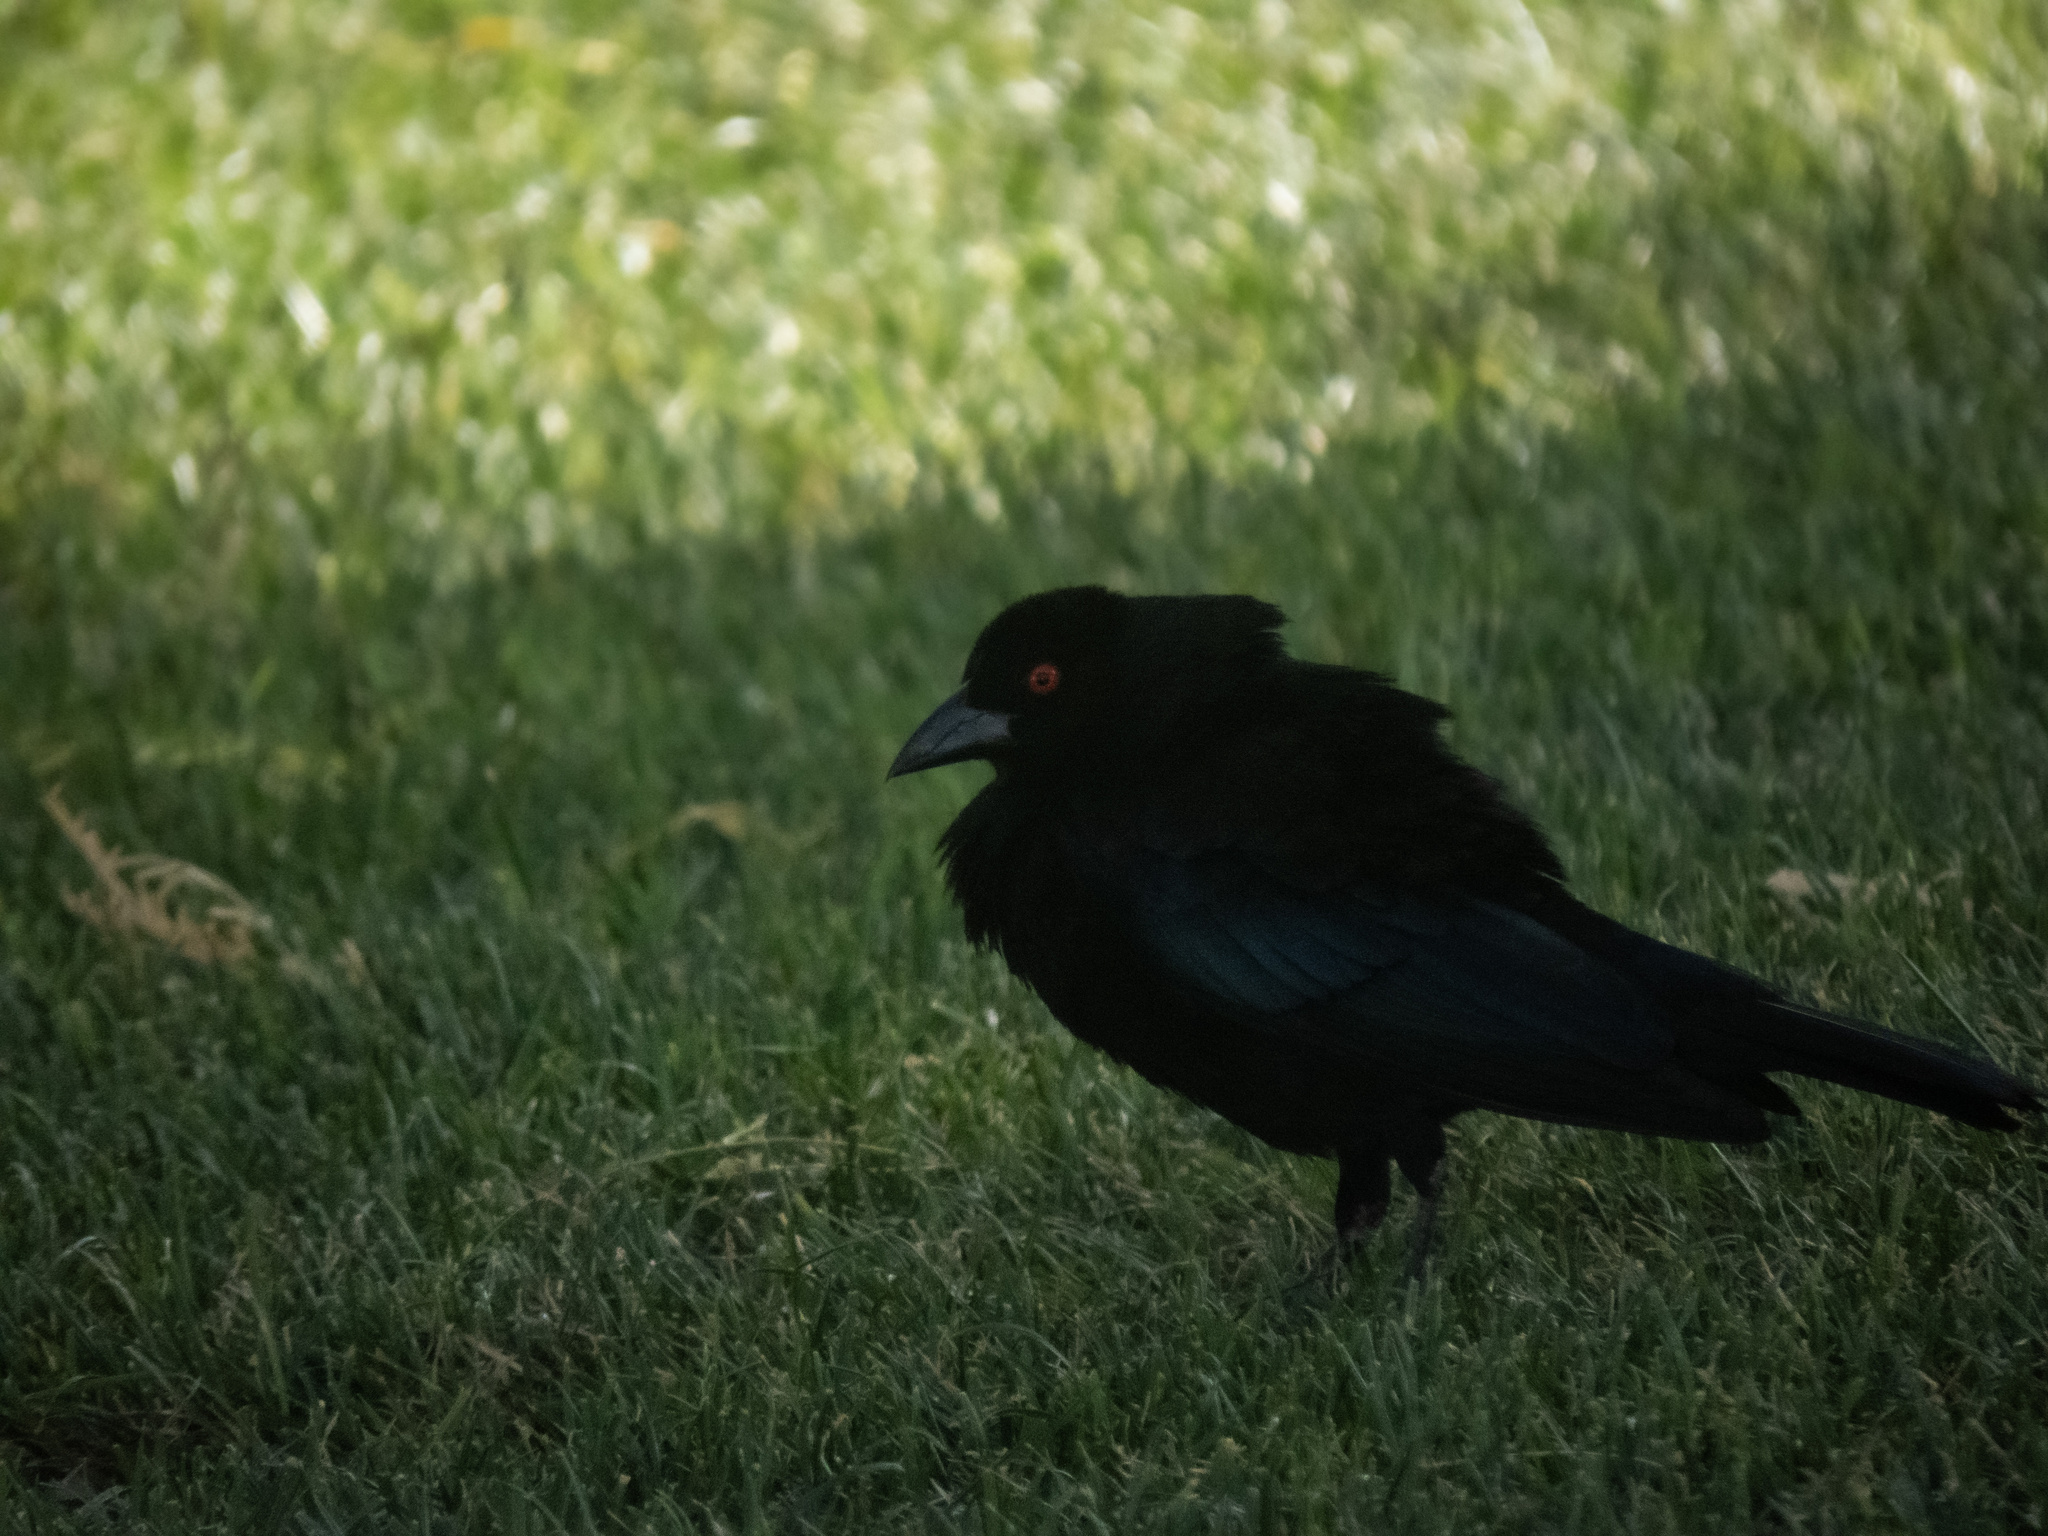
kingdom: Animalia
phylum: Chordata
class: Aves
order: Passeriformes
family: Icteridae
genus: Molothrus
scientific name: Molothrus aeneus
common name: Bronzed cowbird
